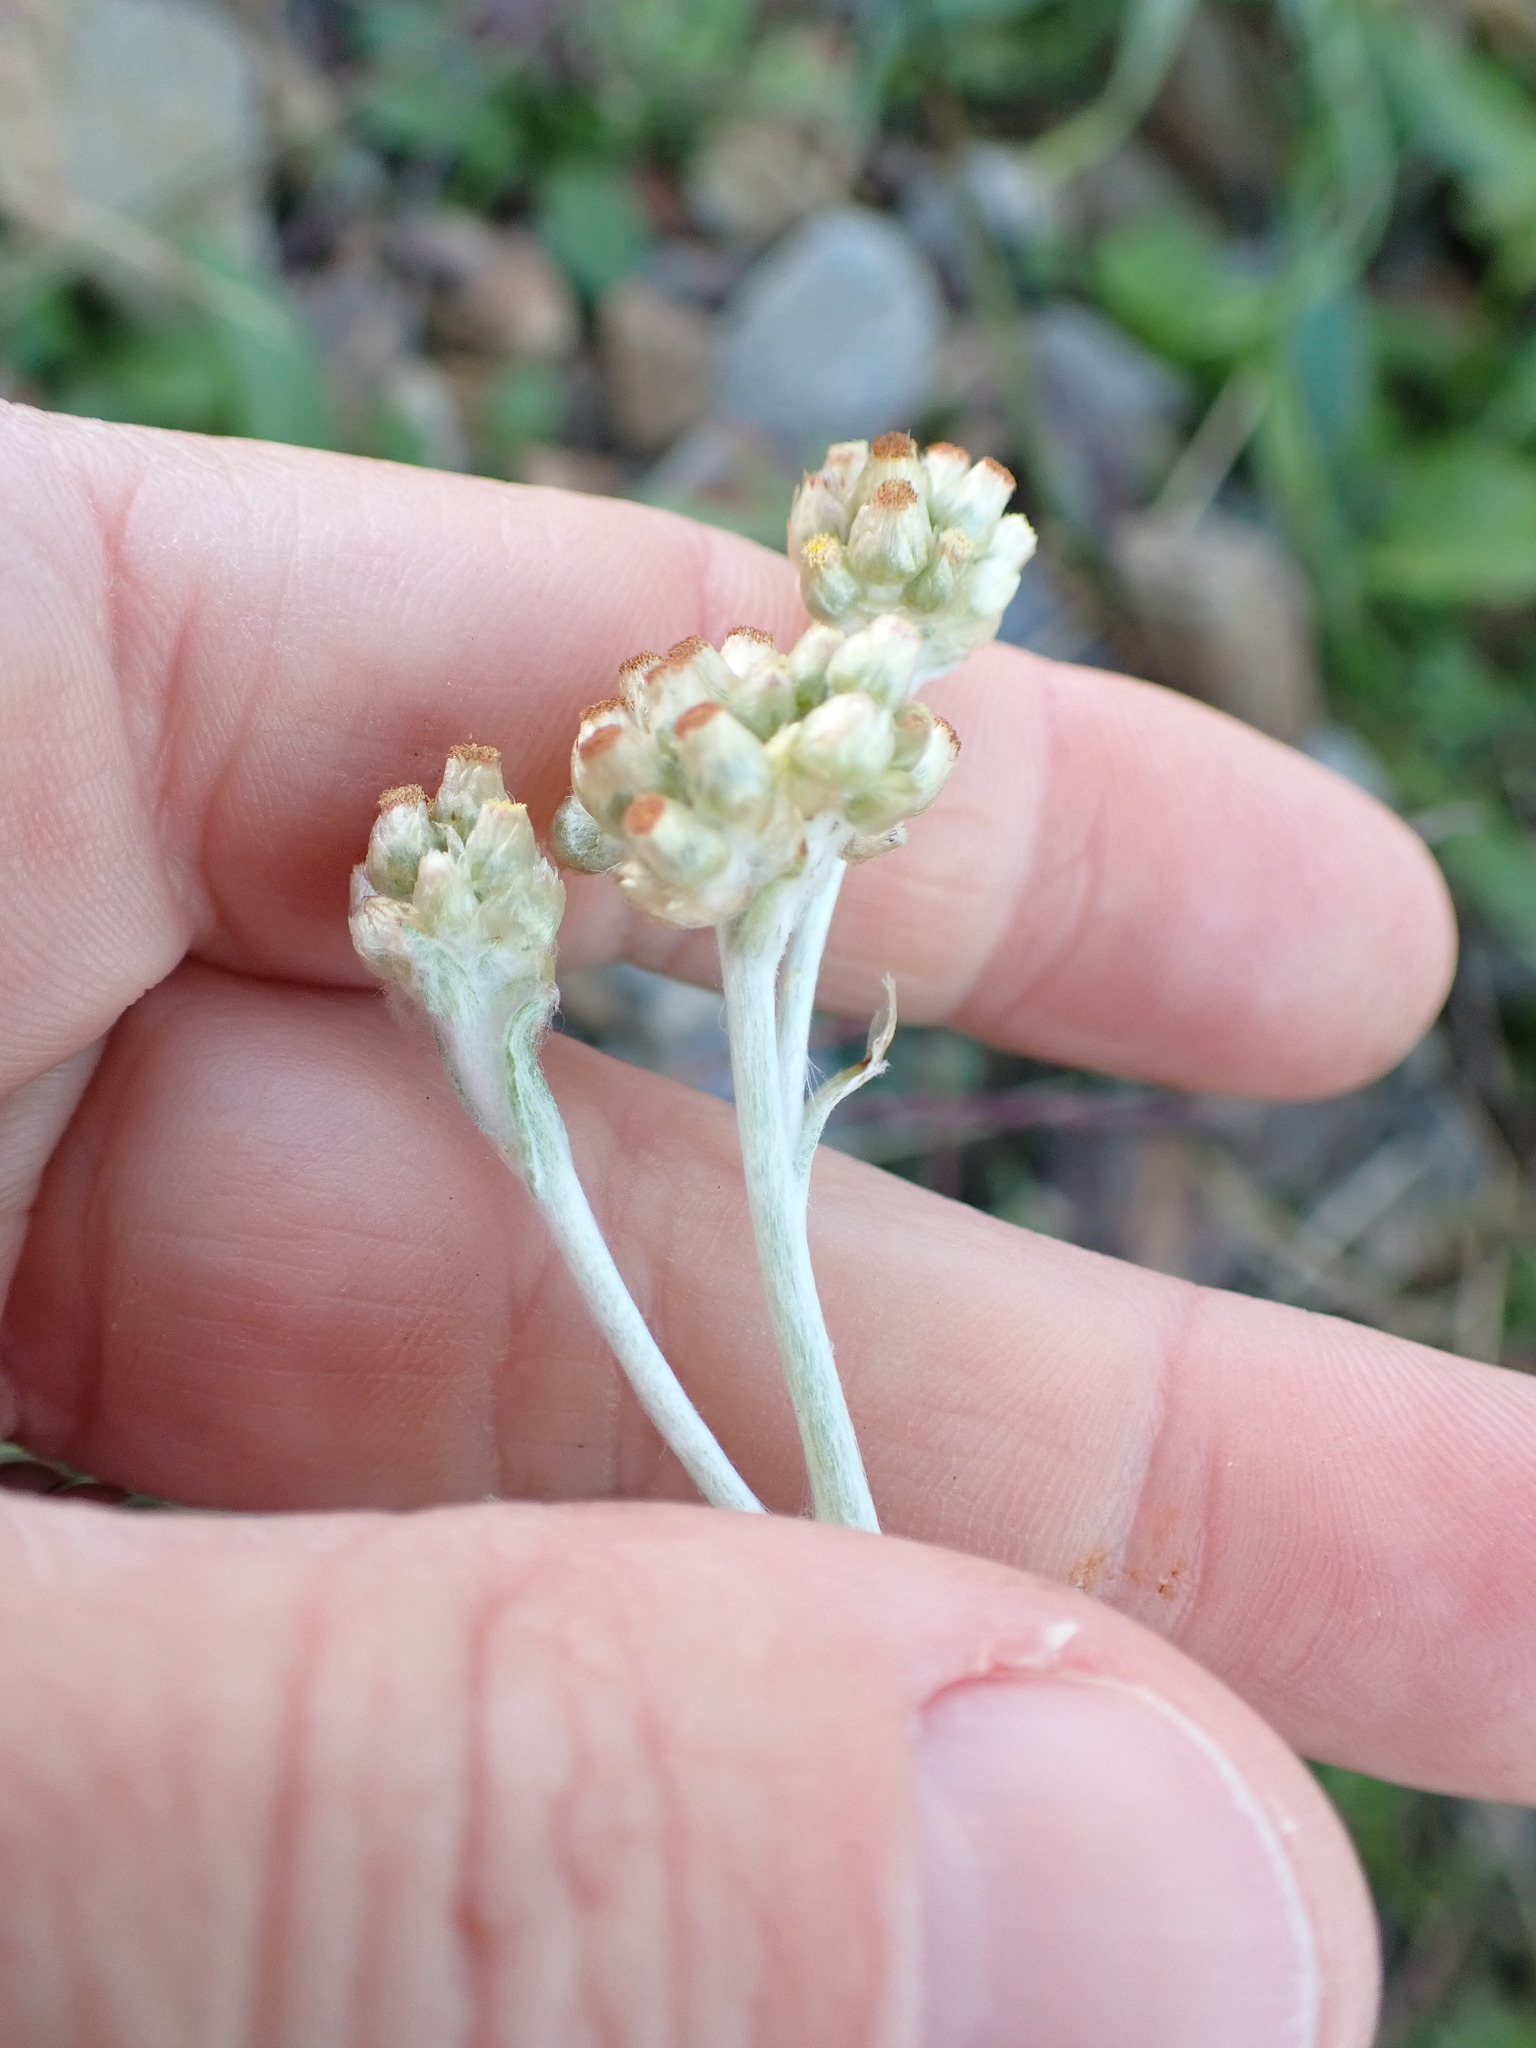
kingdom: Plantae
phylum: Tracheophyta
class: Magnoliopsida
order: Asterales
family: Asteraceae
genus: Helichrysum
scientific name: Helichrysum luteoalbum
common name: Daisy
